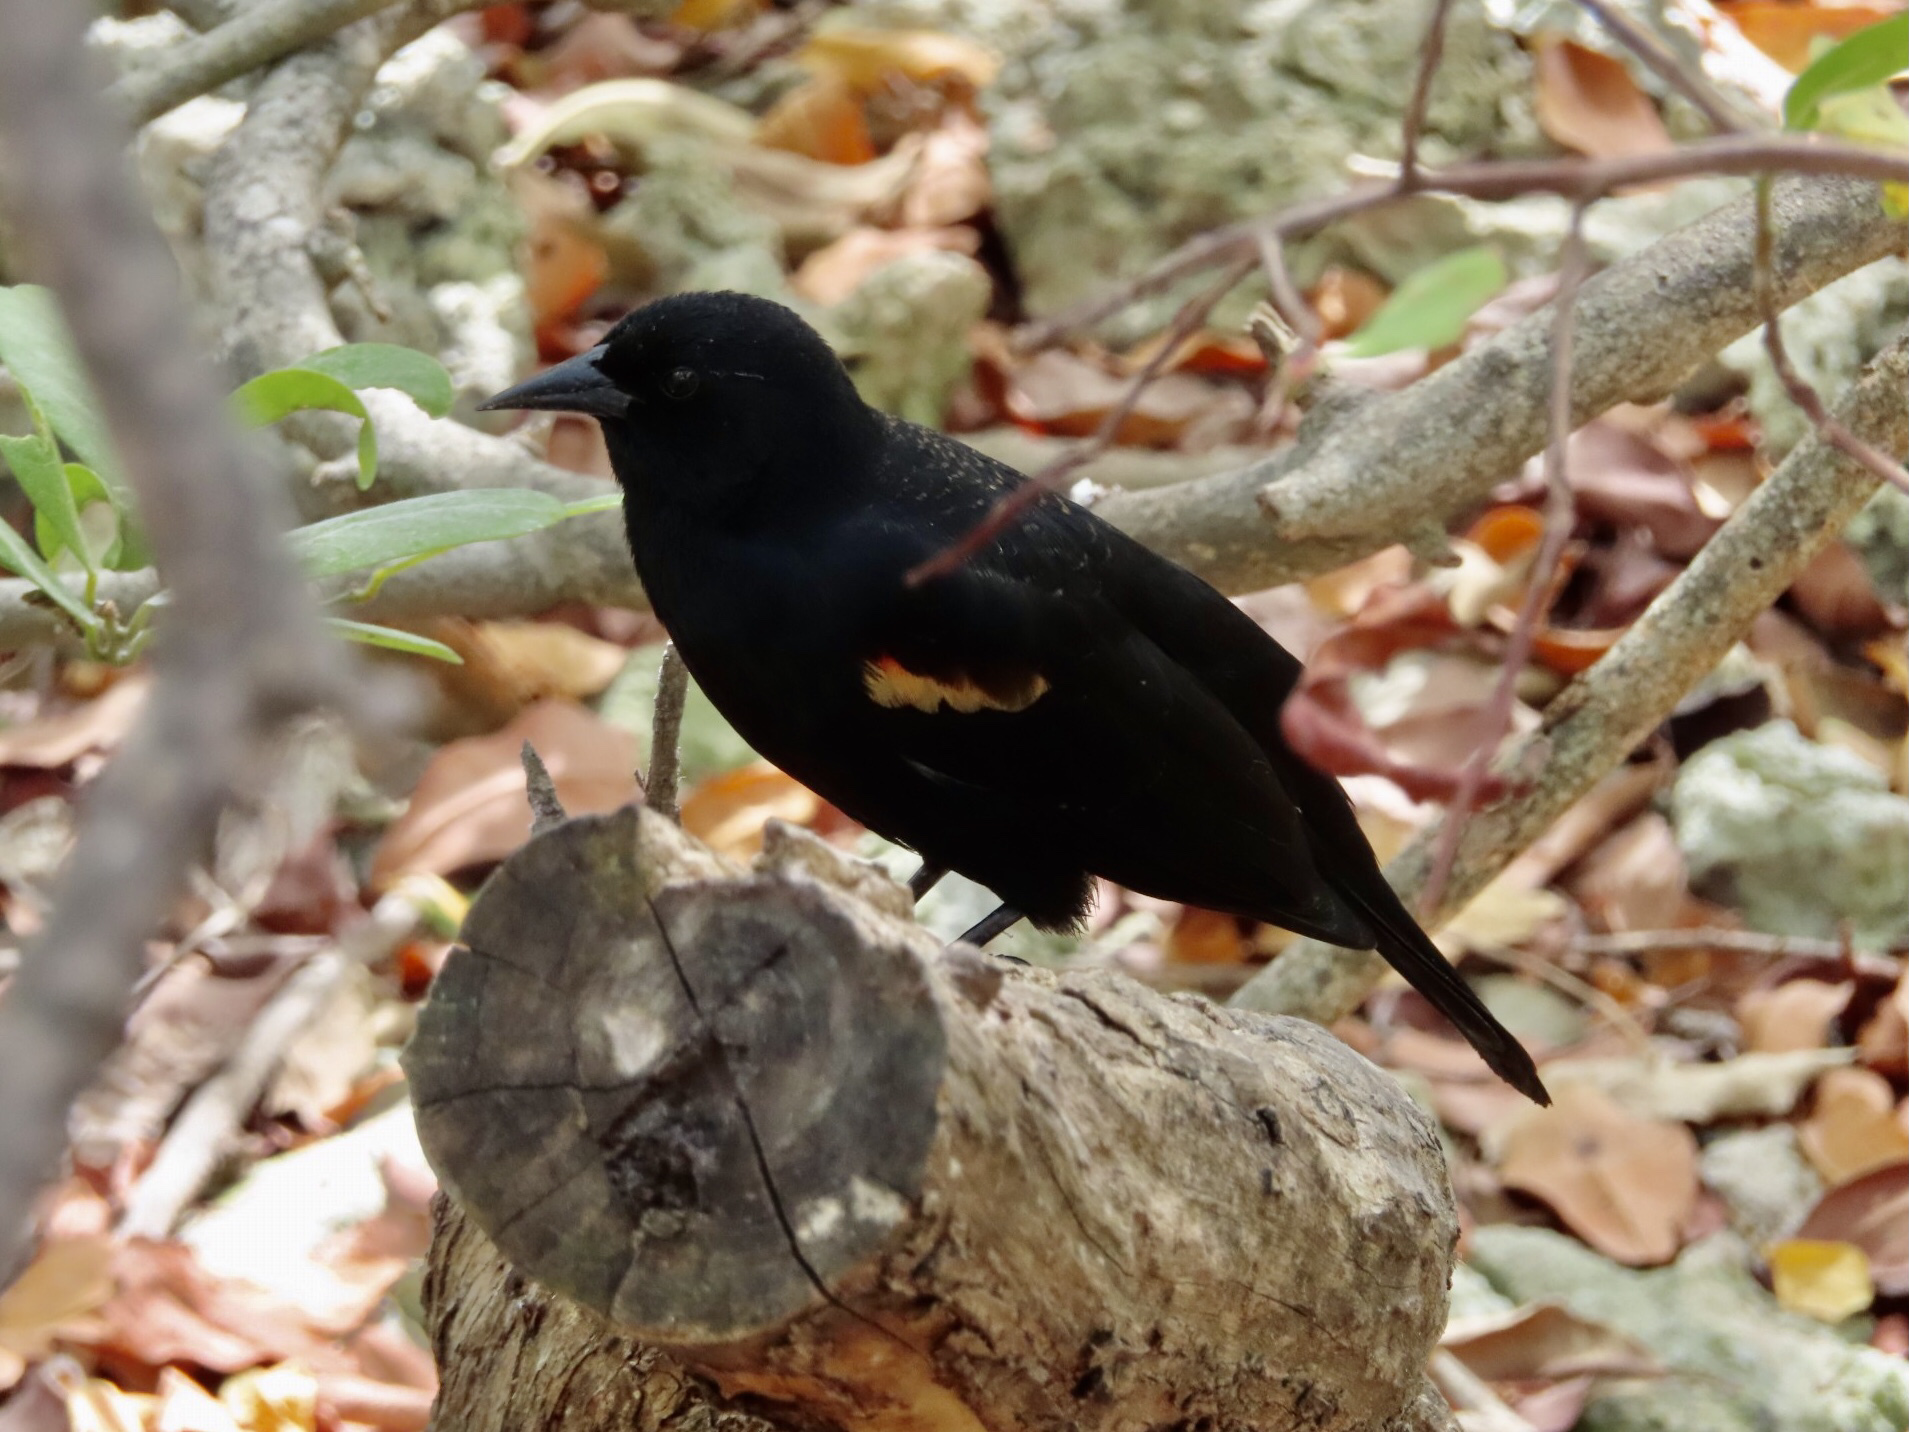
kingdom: Animalia
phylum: Chordata
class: Aves
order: Passeriformes
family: Icteridae
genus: Agelaius
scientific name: Agelaius phoeniceus
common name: Red-winged blackbird
